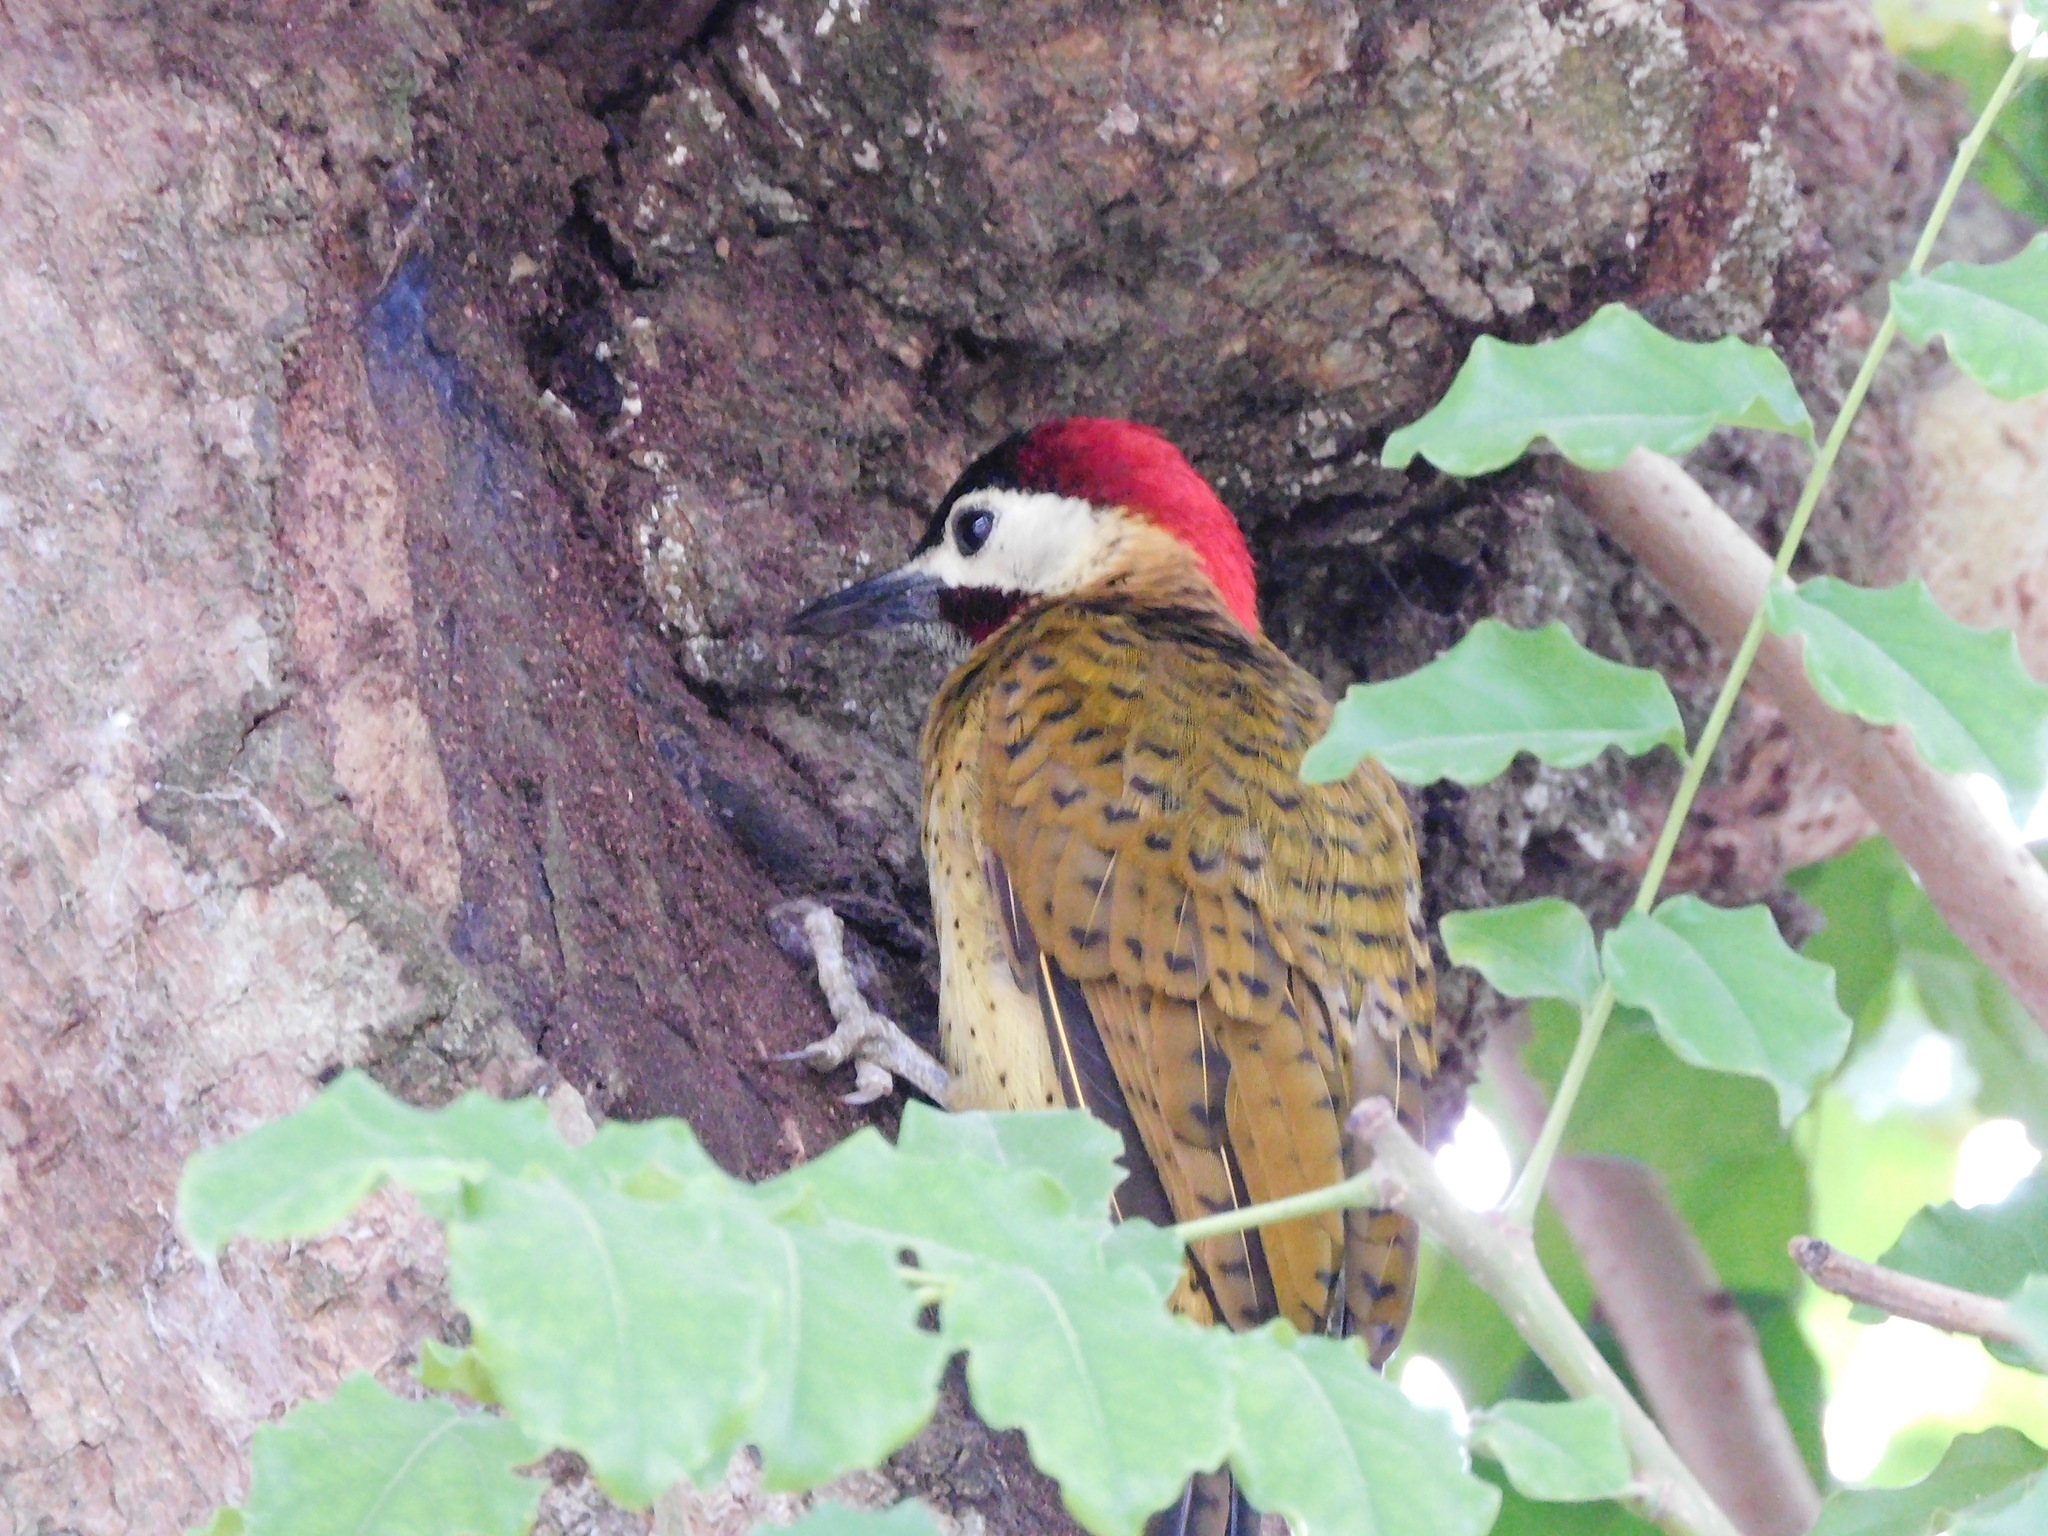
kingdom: Animalia
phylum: Chordata
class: Aves
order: Piciformes
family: Picidae
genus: Colaptes
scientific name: Colaptes punctigula
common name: Spot-breasted woodpecker
